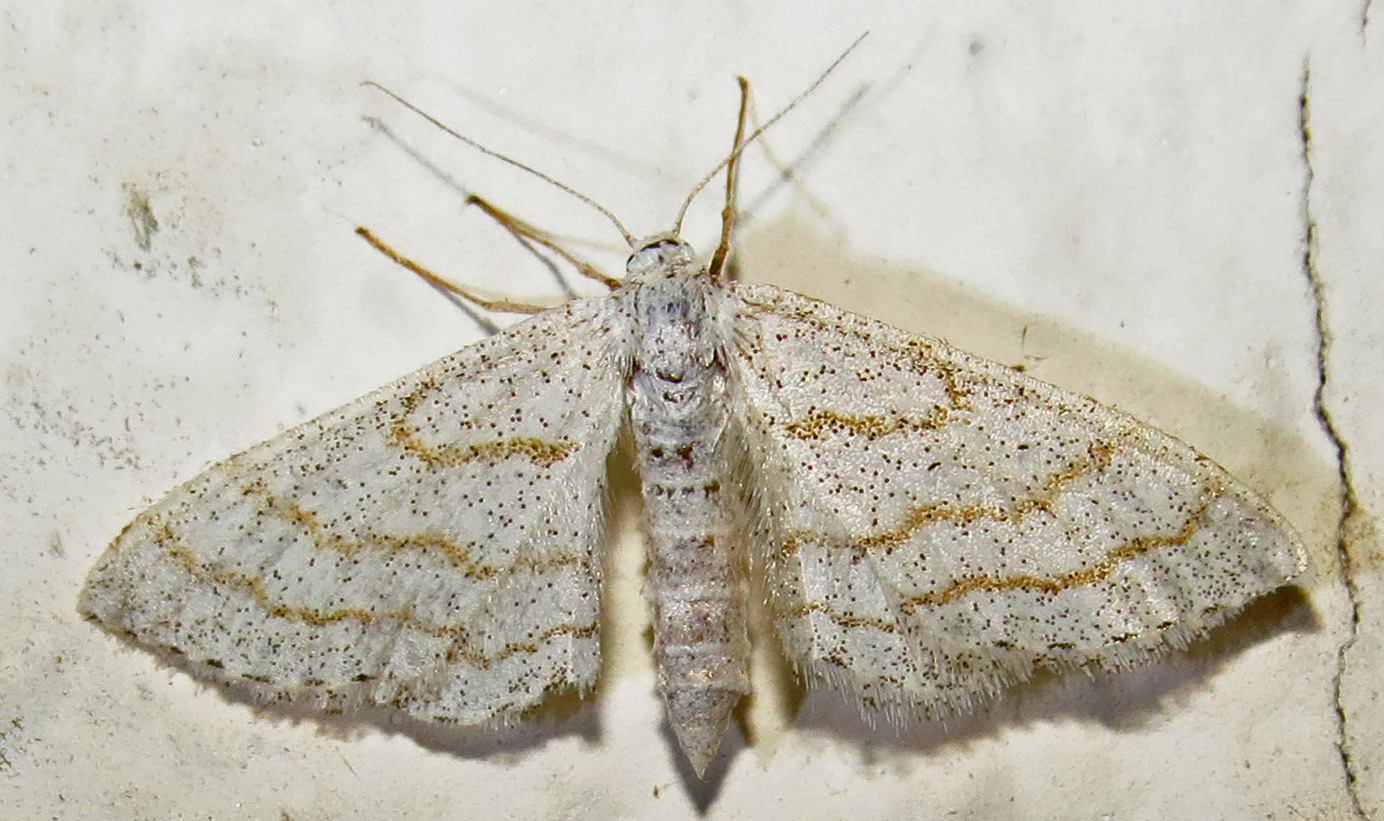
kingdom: Animalia
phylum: Arthropoda
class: Insecta
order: Lepidoptera
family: Geometridae
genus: Lobocleta
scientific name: Lobocleta peralbata
